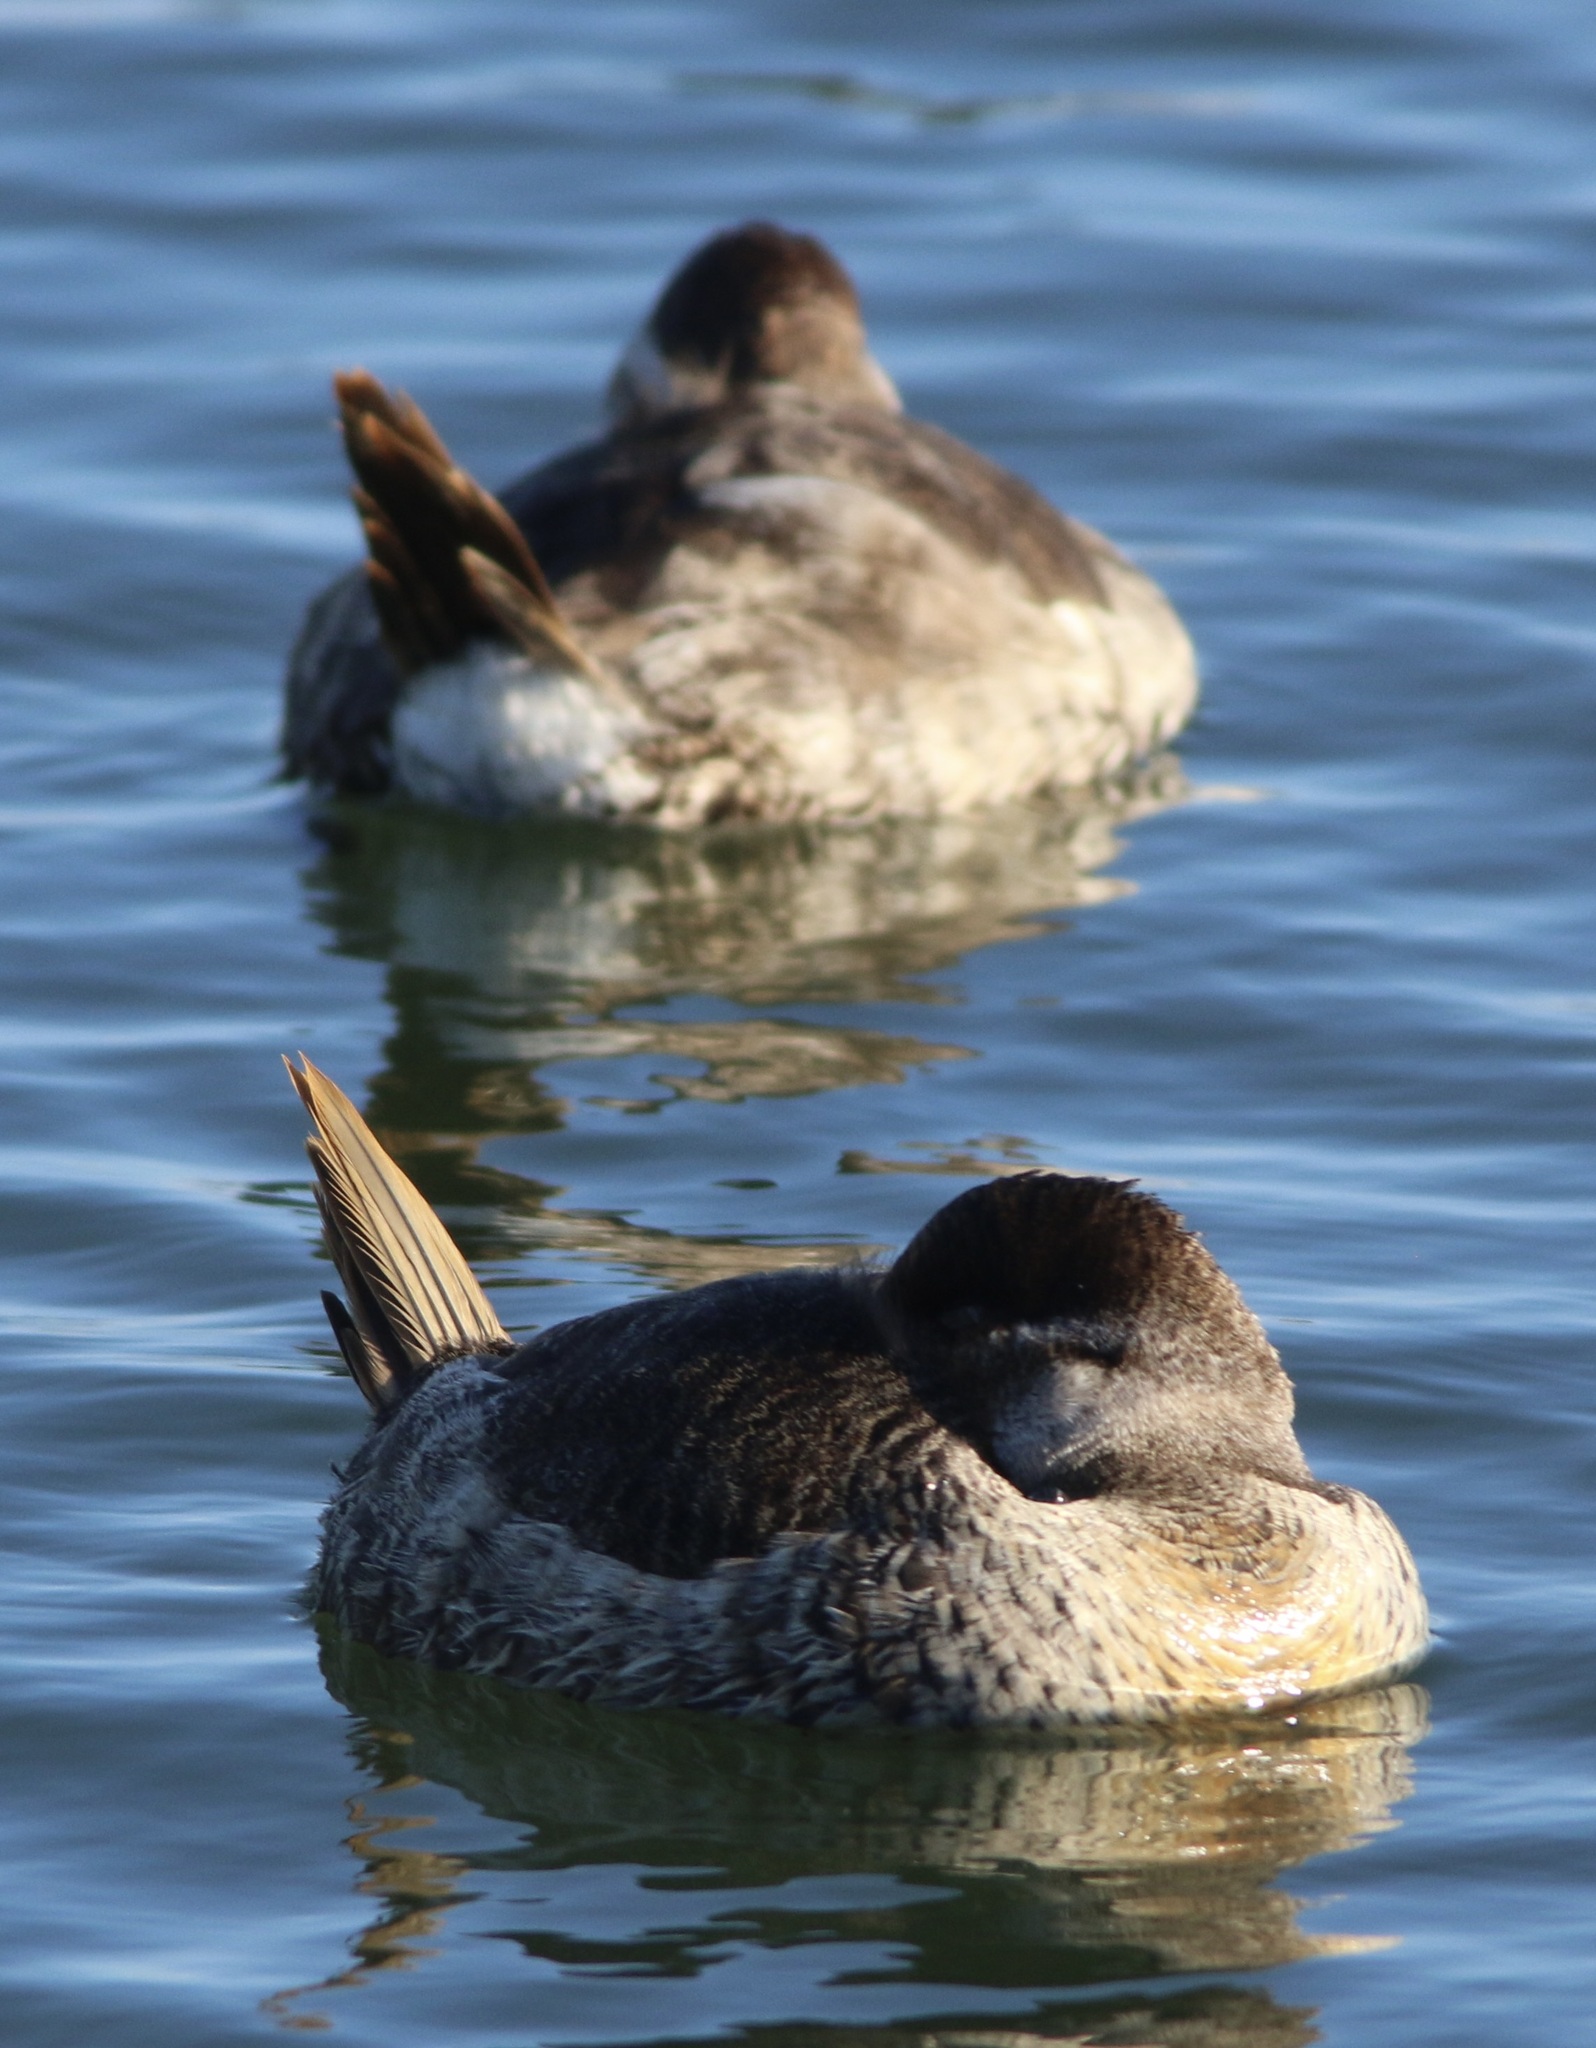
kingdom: Animalia
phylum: Chordata
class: Aves
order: Anseriformes
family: Anatidae
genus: Oxyura
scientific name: Oxyura jamaicensis
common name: Ruddy duck
